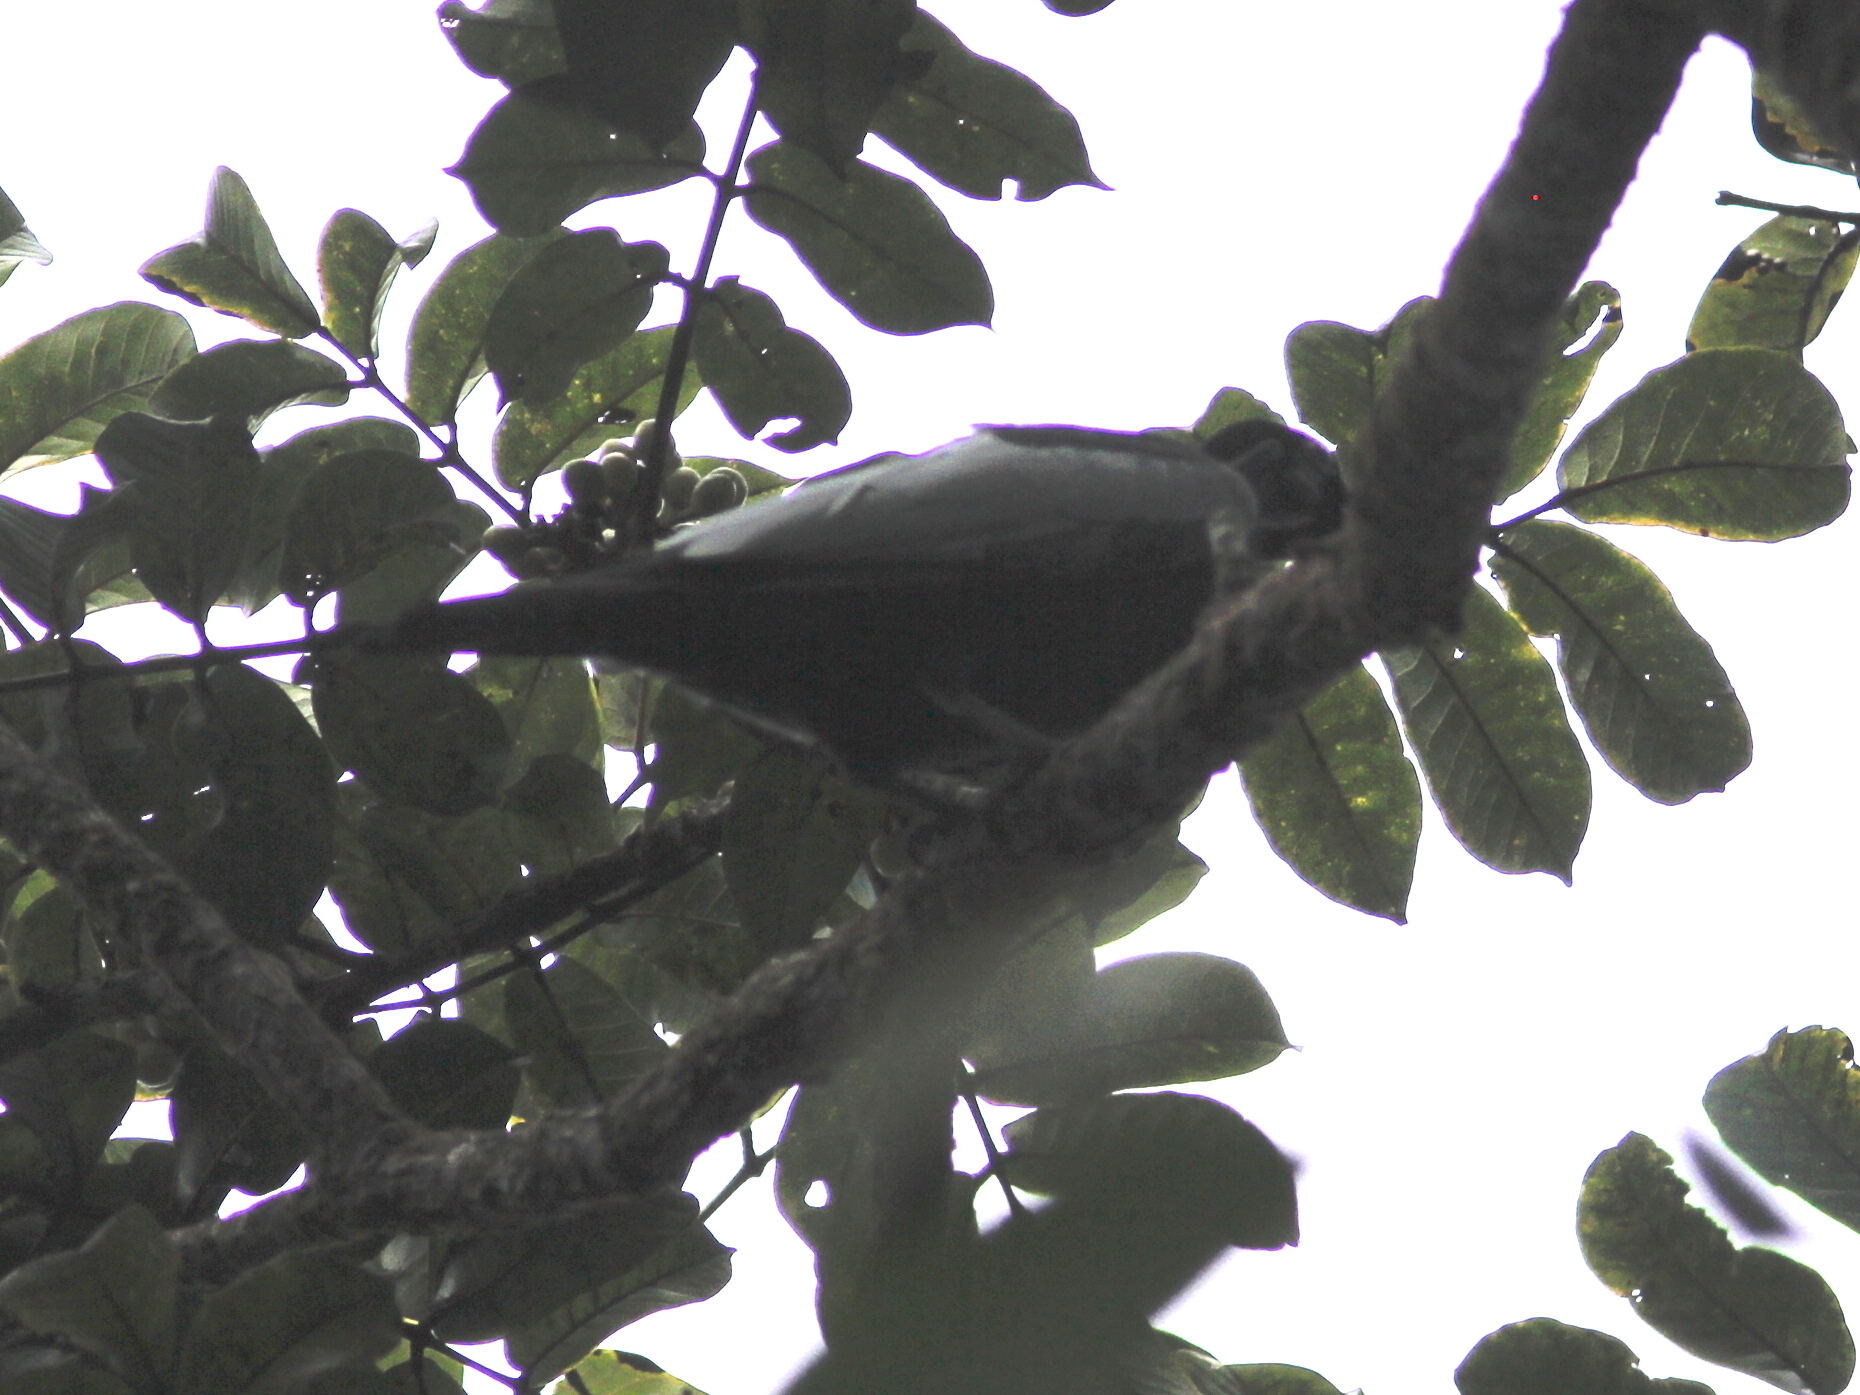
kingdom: Animalia
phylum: Chordata
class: Aves
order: Passeriformes
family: Cotingidae
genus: Gymnoderus
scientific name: Gymnoderus foetidus
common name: Bare-necked fruitcrow
